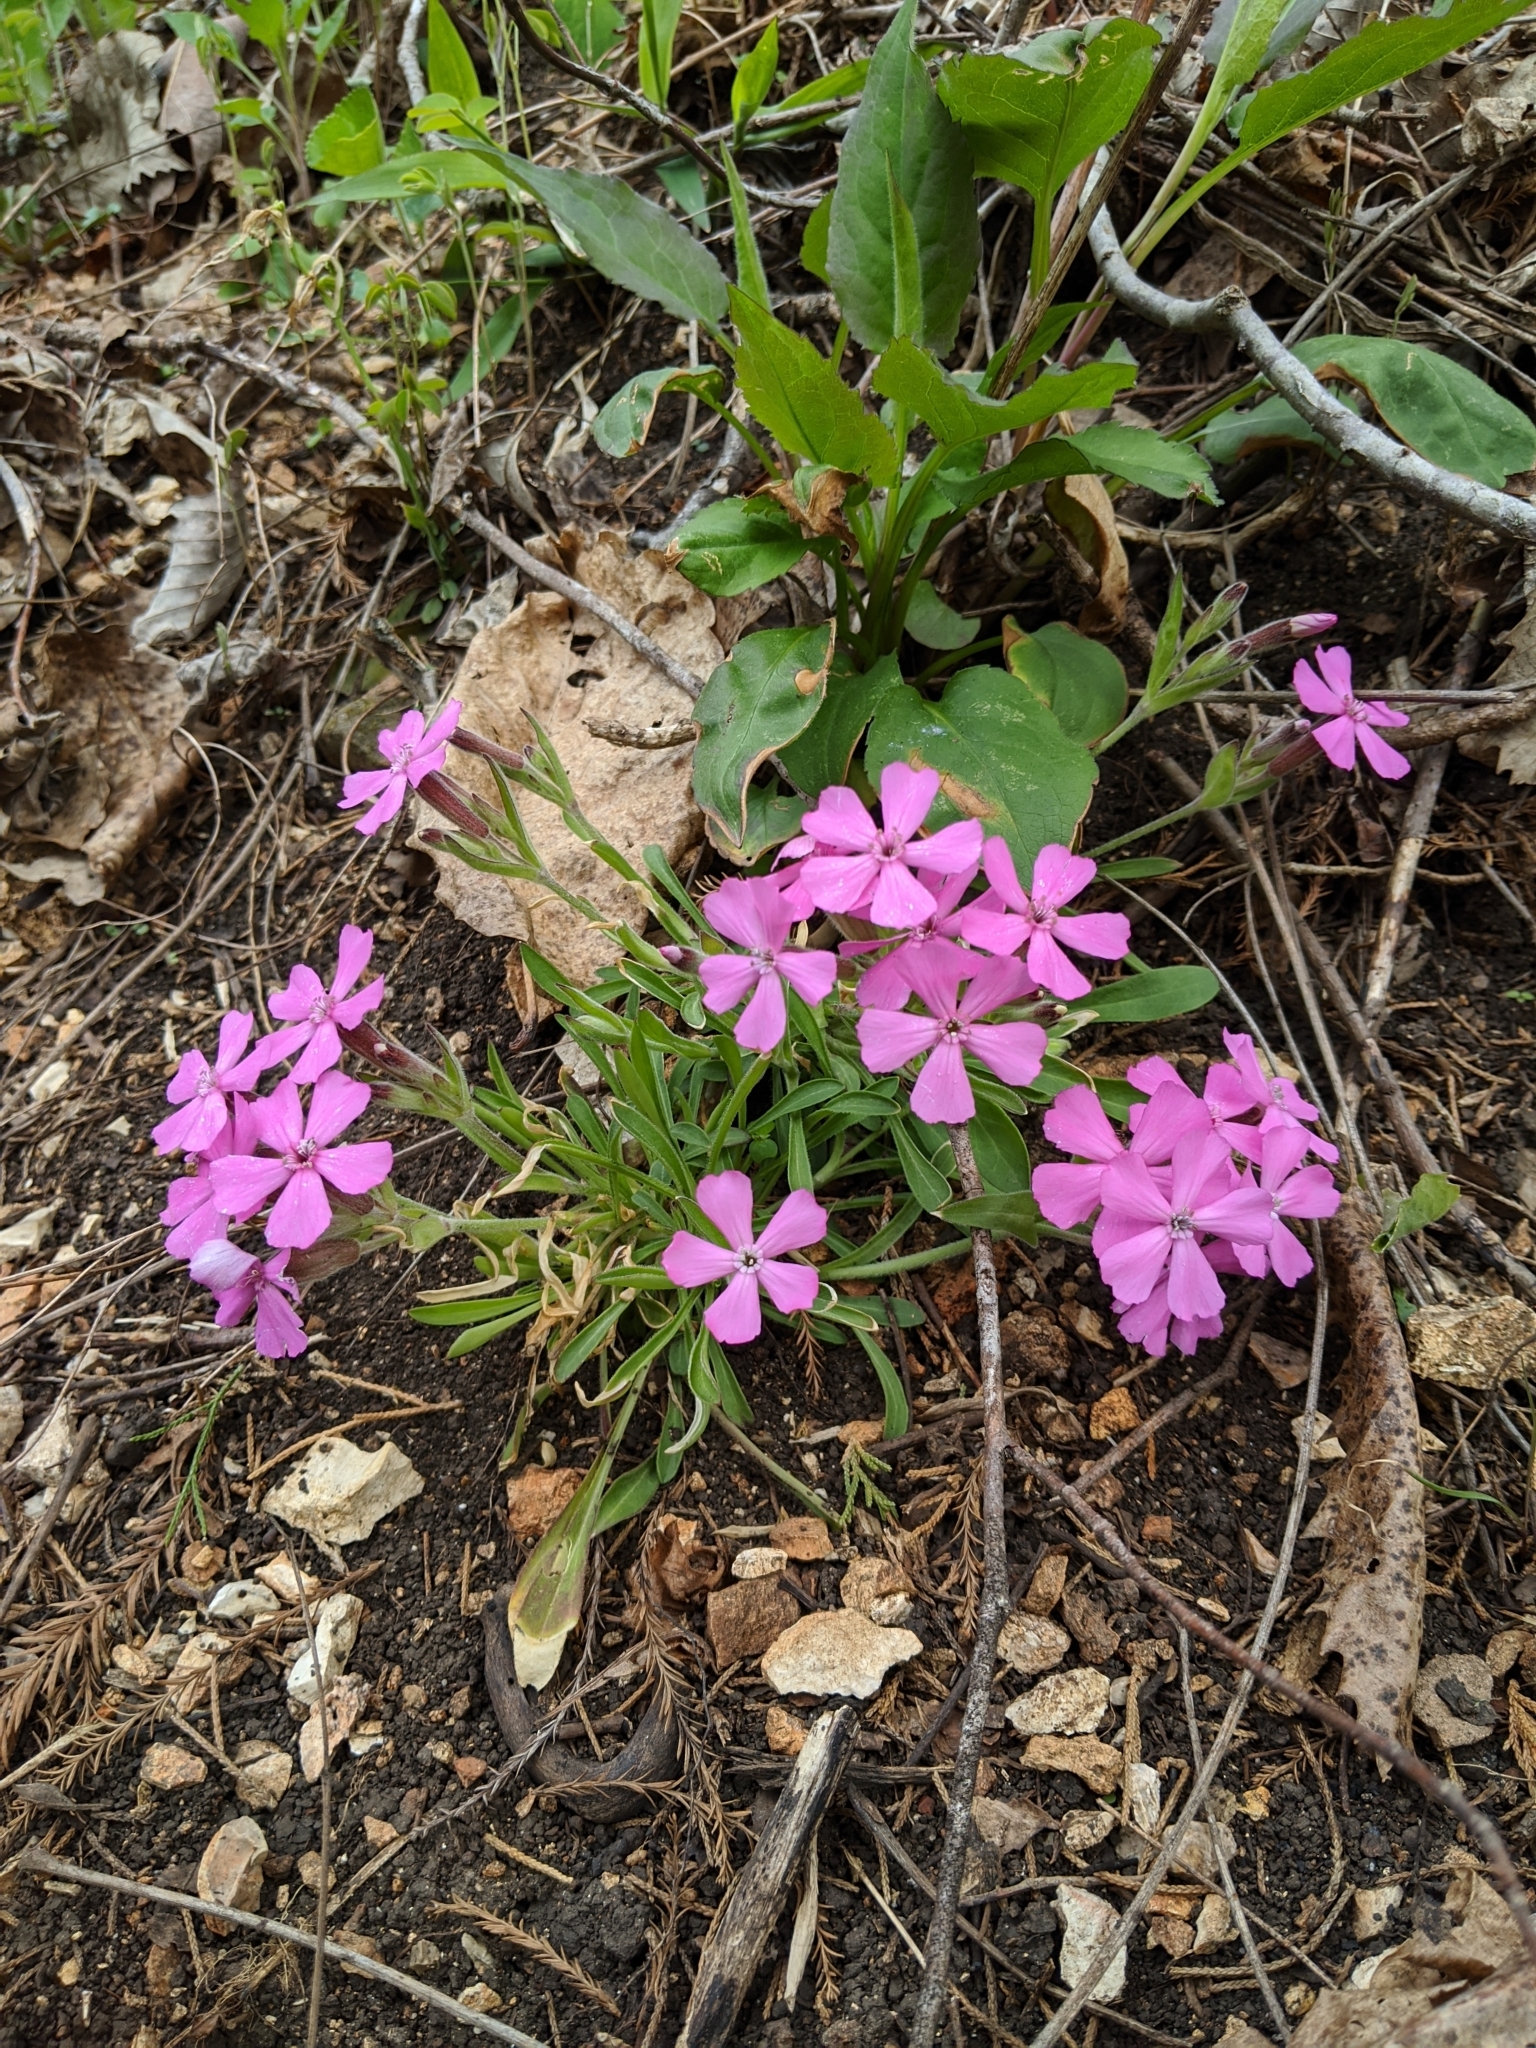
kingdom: Plantae
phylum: Tracheophyta
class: Magnoliopsida
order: Caryophyllales
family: Caryophyllaceae
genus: Silene
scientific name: Silene caroliniana
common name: Sticky catchfly
